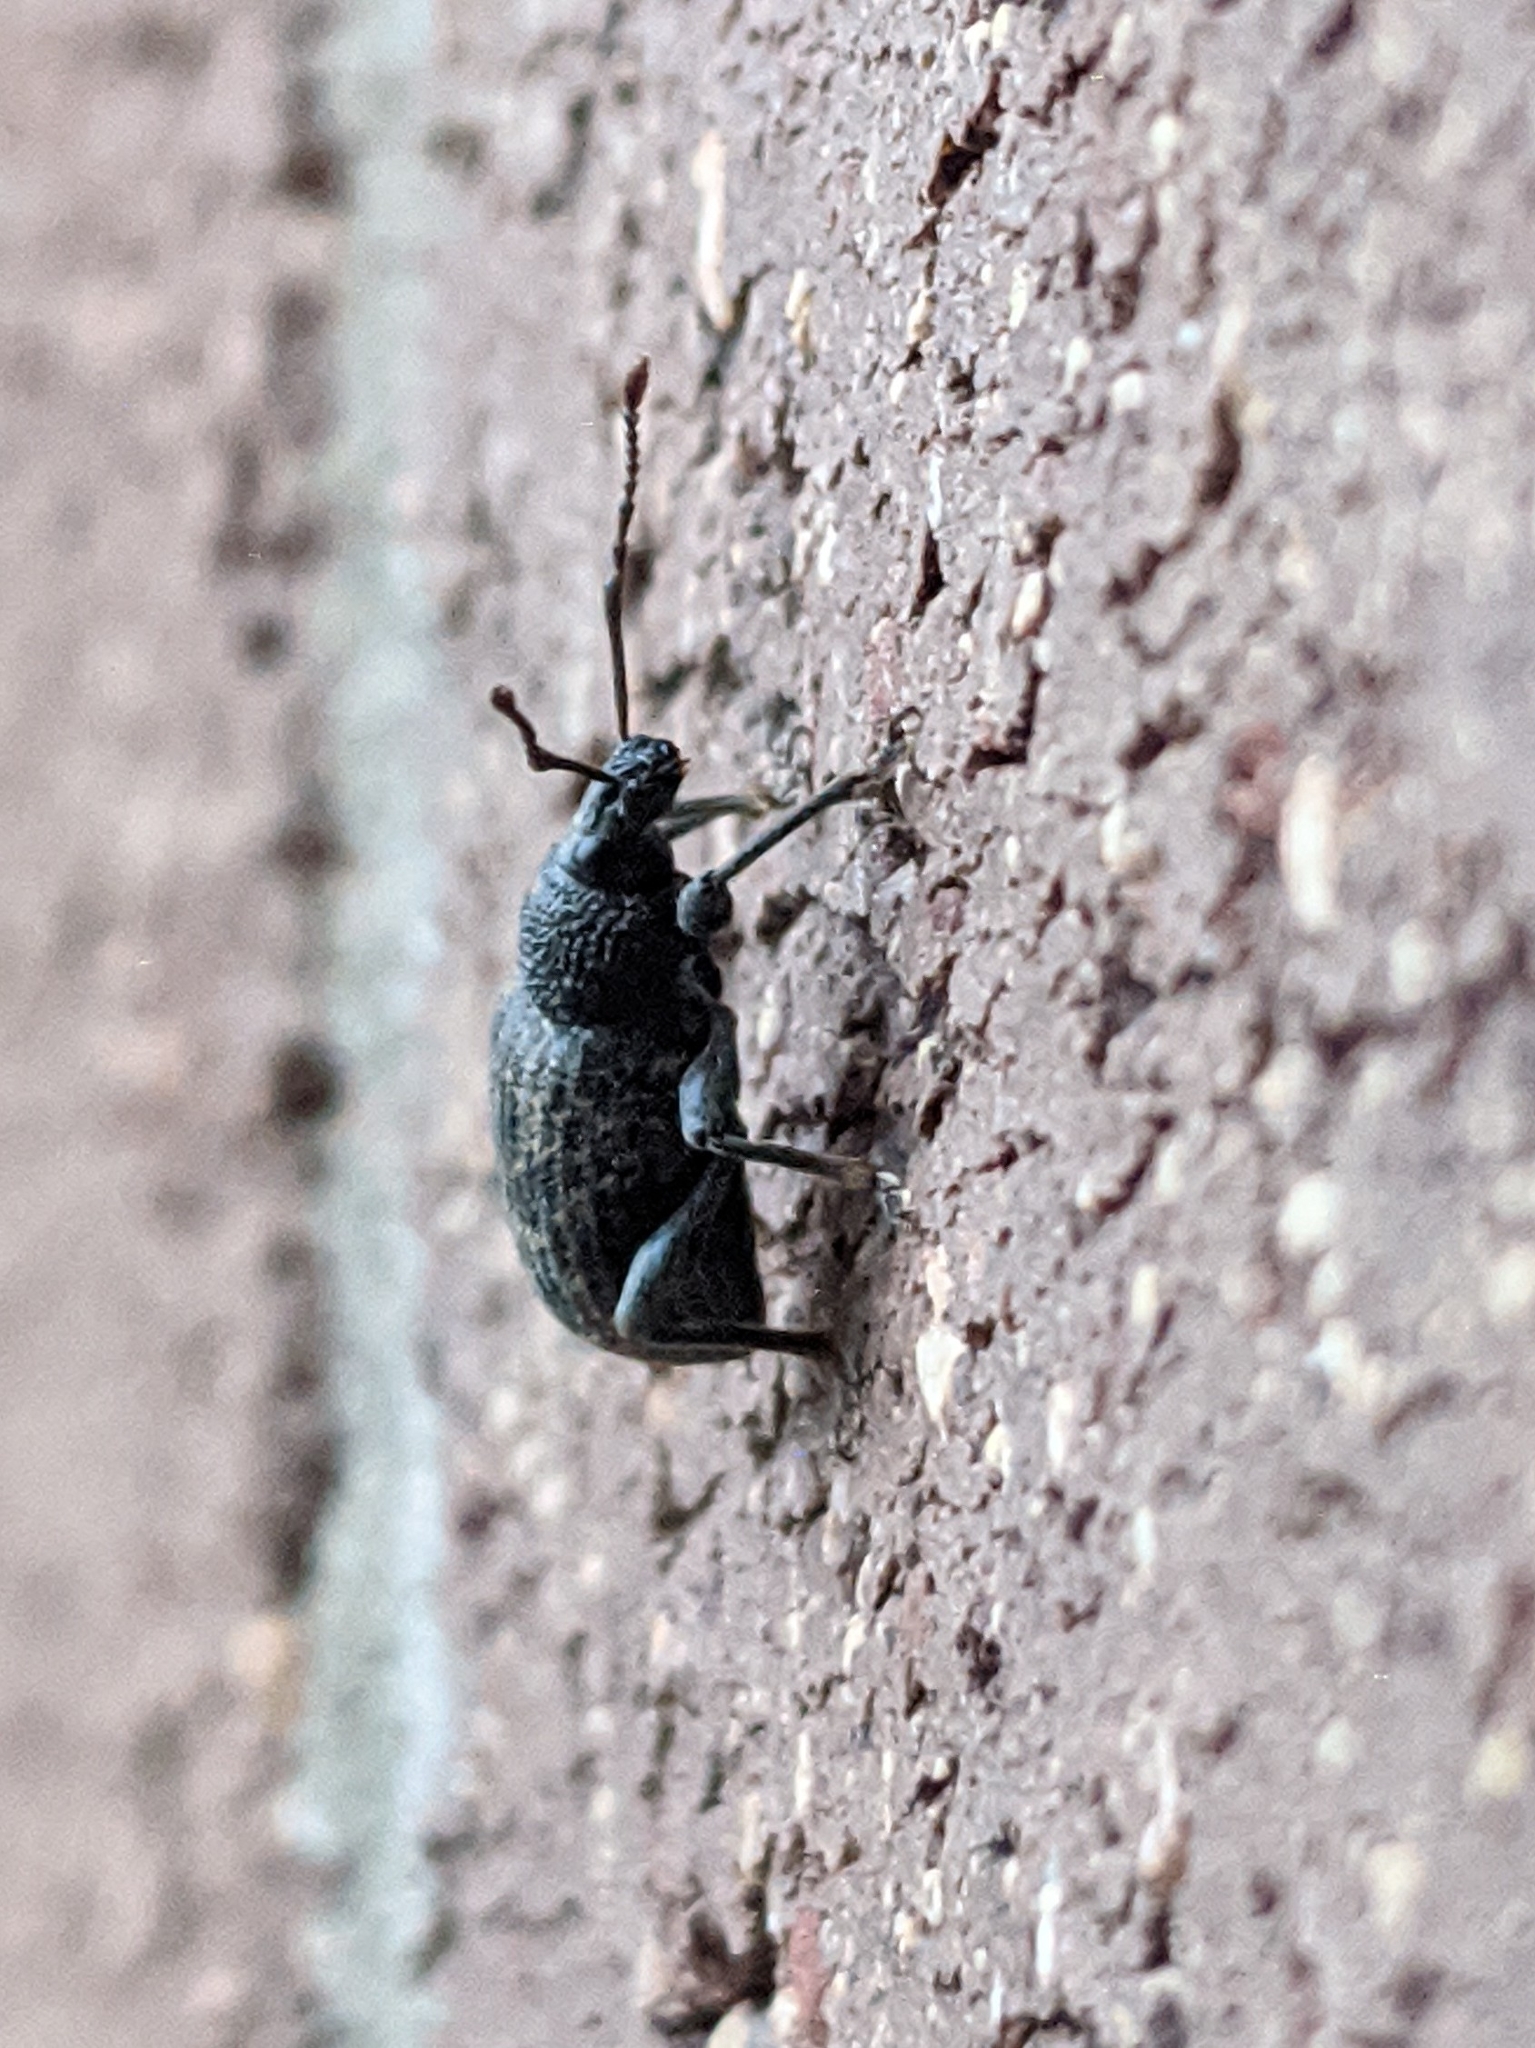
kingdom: Animalia
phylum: Arthropoda
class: Insecta
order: Coleoptera
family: Curculionidae
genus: Otiorhynchus
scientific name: Otiorhynchus sulcatus
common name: Black vine weevil
